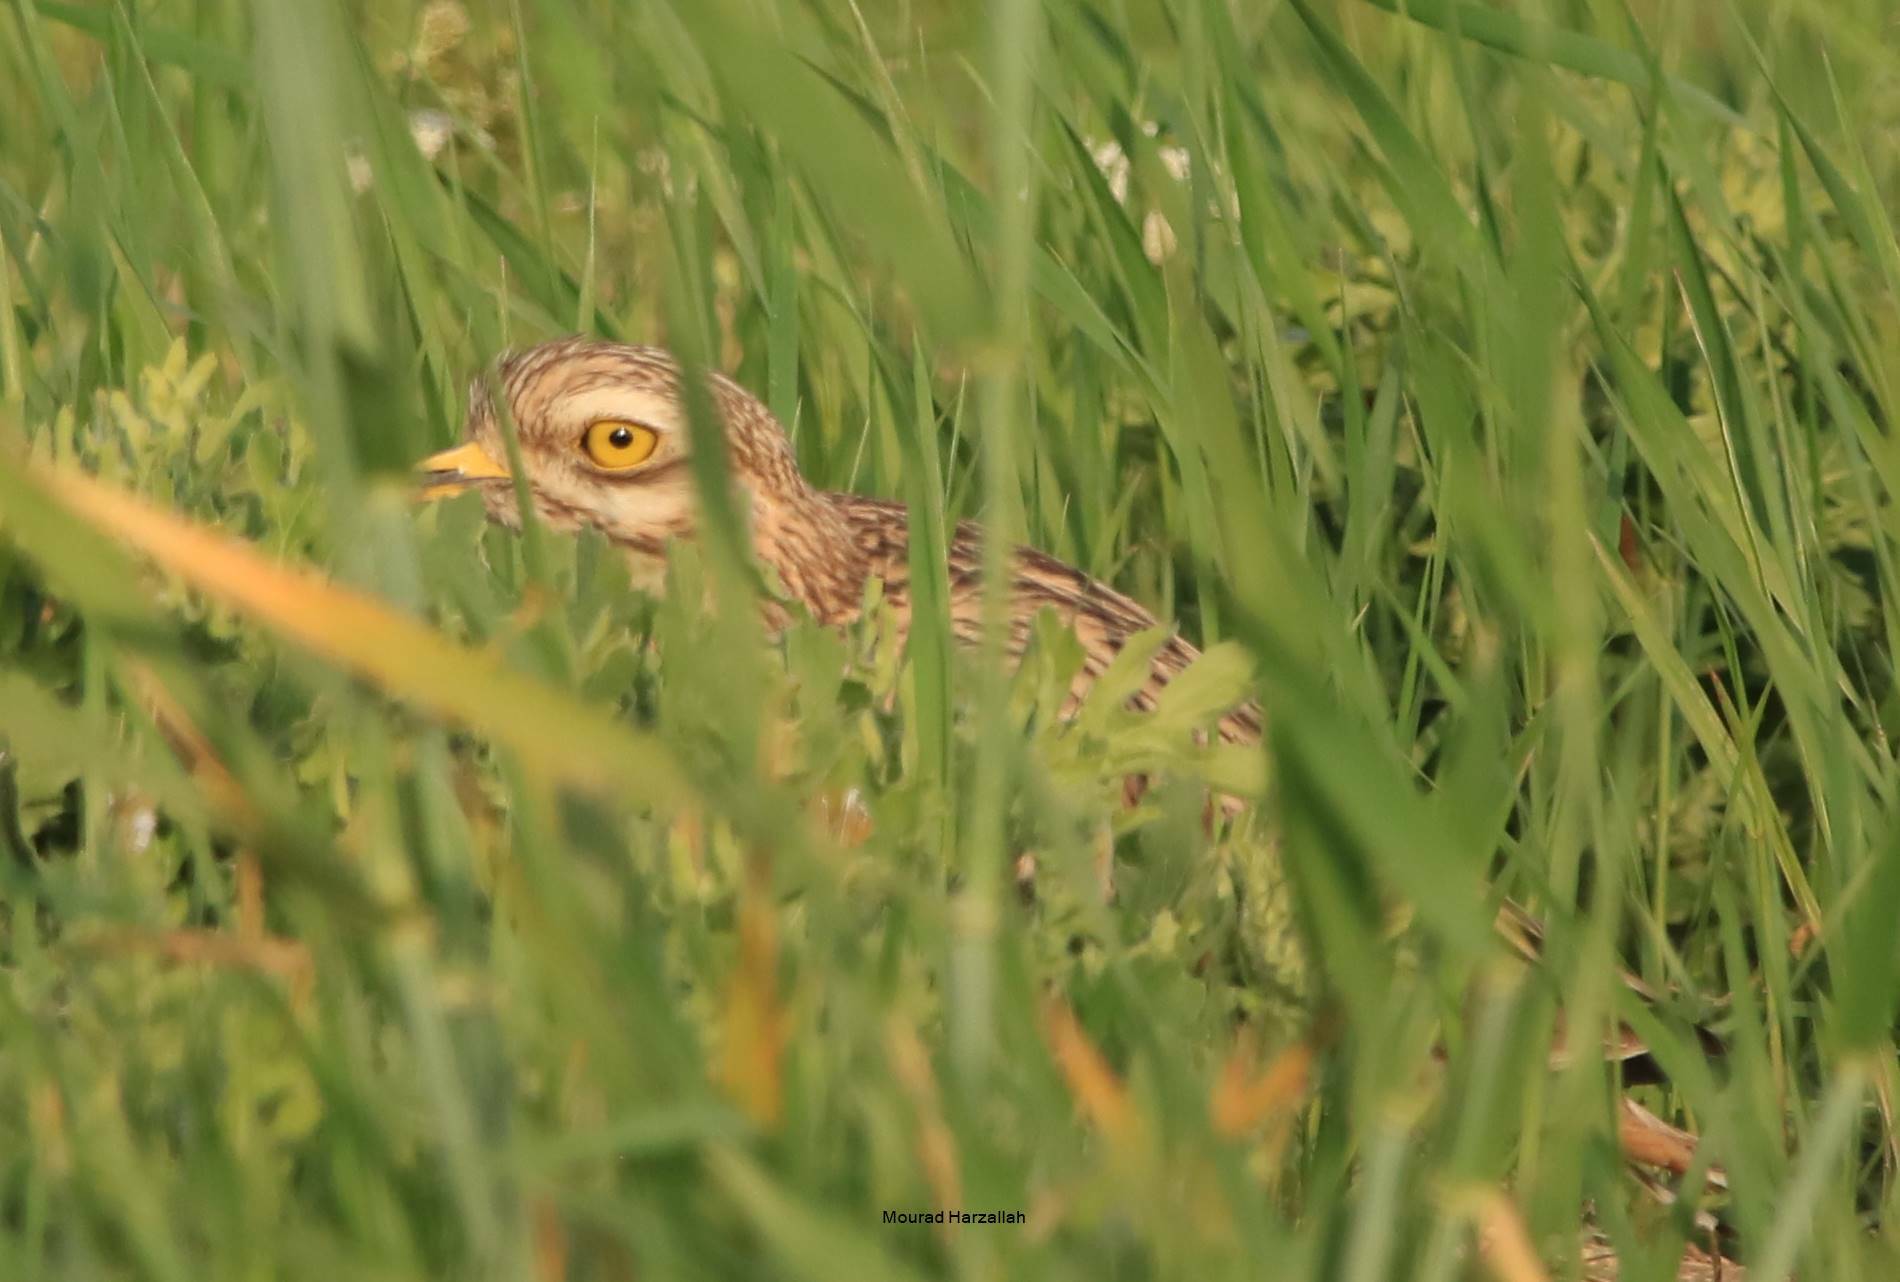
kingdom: Animalia
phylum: Chordata
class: Aves
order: Charadriiformes
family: Burhinidae
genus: Burhinus
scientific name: Burhinus oedicnemus
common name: Eurasian stone-curlew
